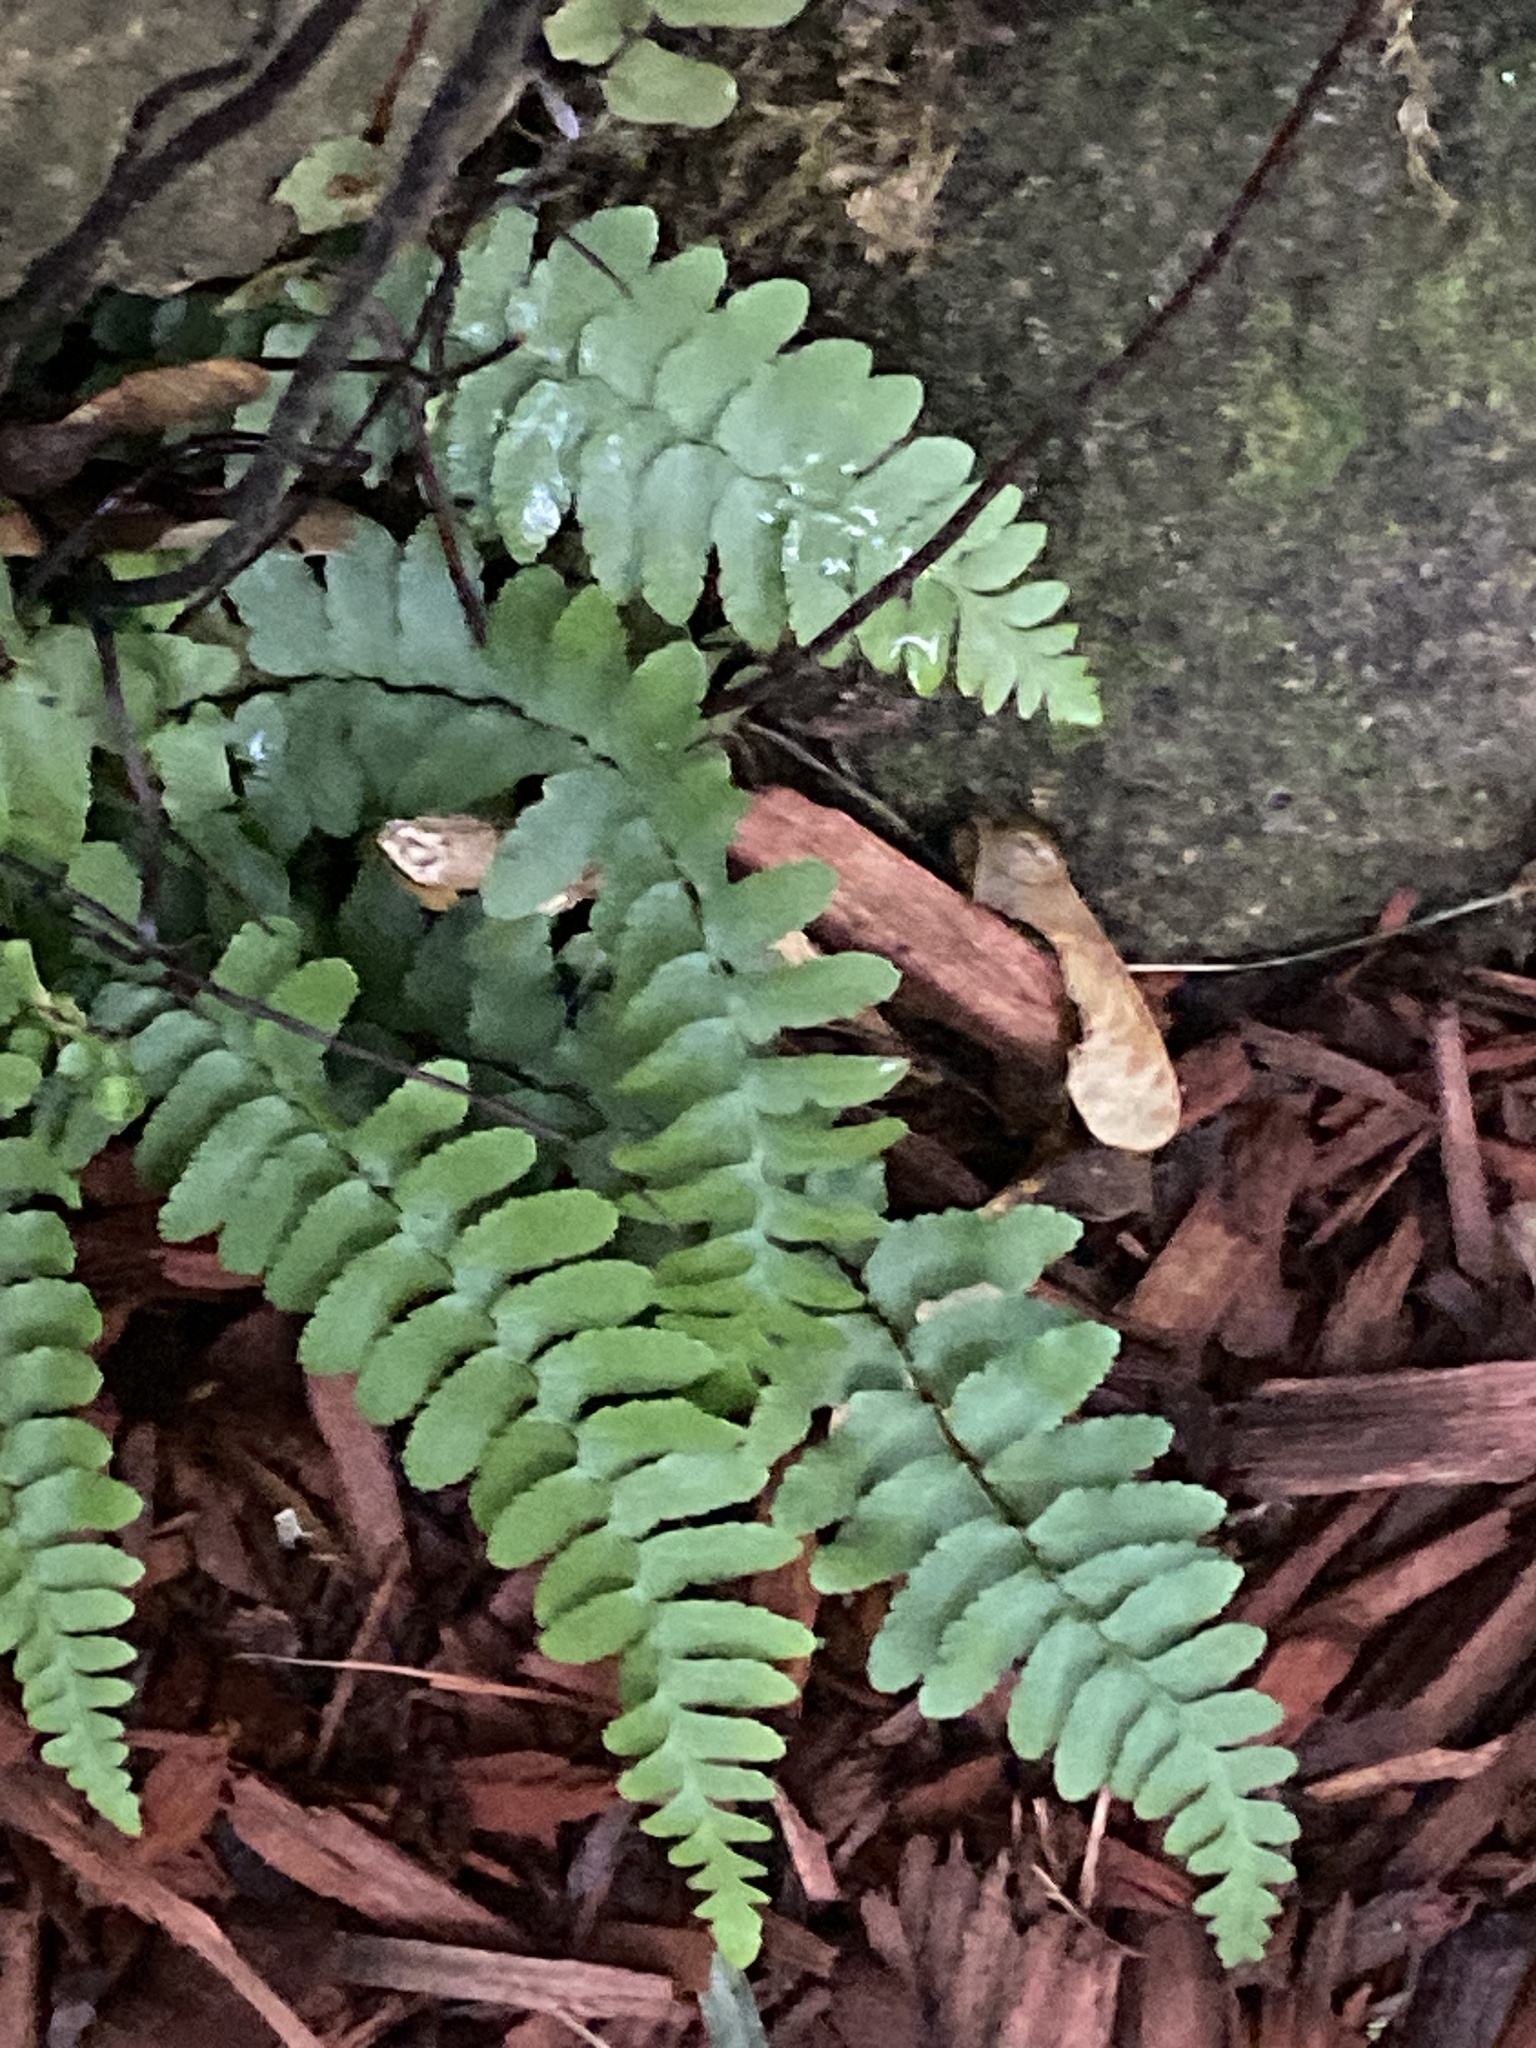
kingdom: Plantae
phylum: Tracheophyta
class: Polypodiopsida
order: Polypodiales
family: Aspleniaceae
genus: Asplenium
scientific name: Asplenium platyneuron
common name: Ebony spleenwort
